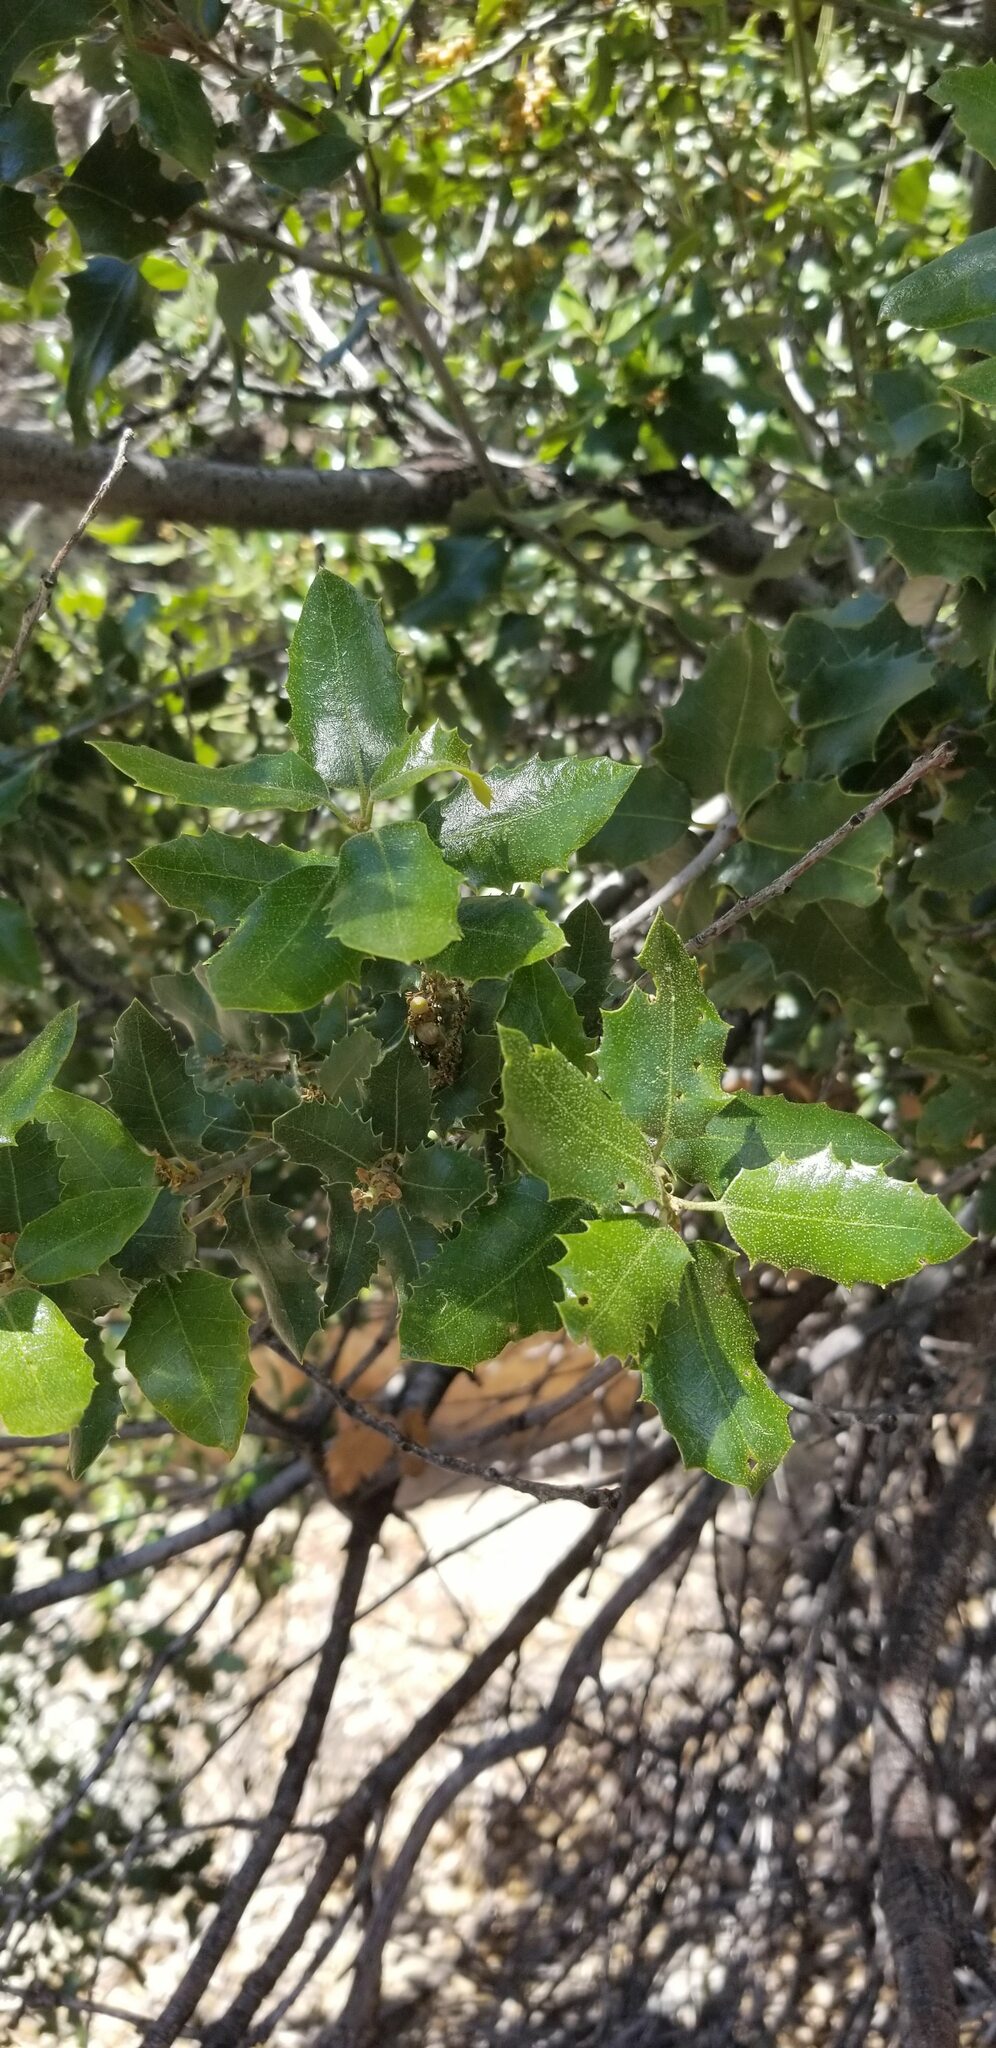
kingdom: Plantae
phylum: Tracheophyta
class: Magnoliopsida
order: Fagales
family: Fagaceae
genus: Quercus
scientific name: Quercus chrysolepis
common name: Canyon live oak
